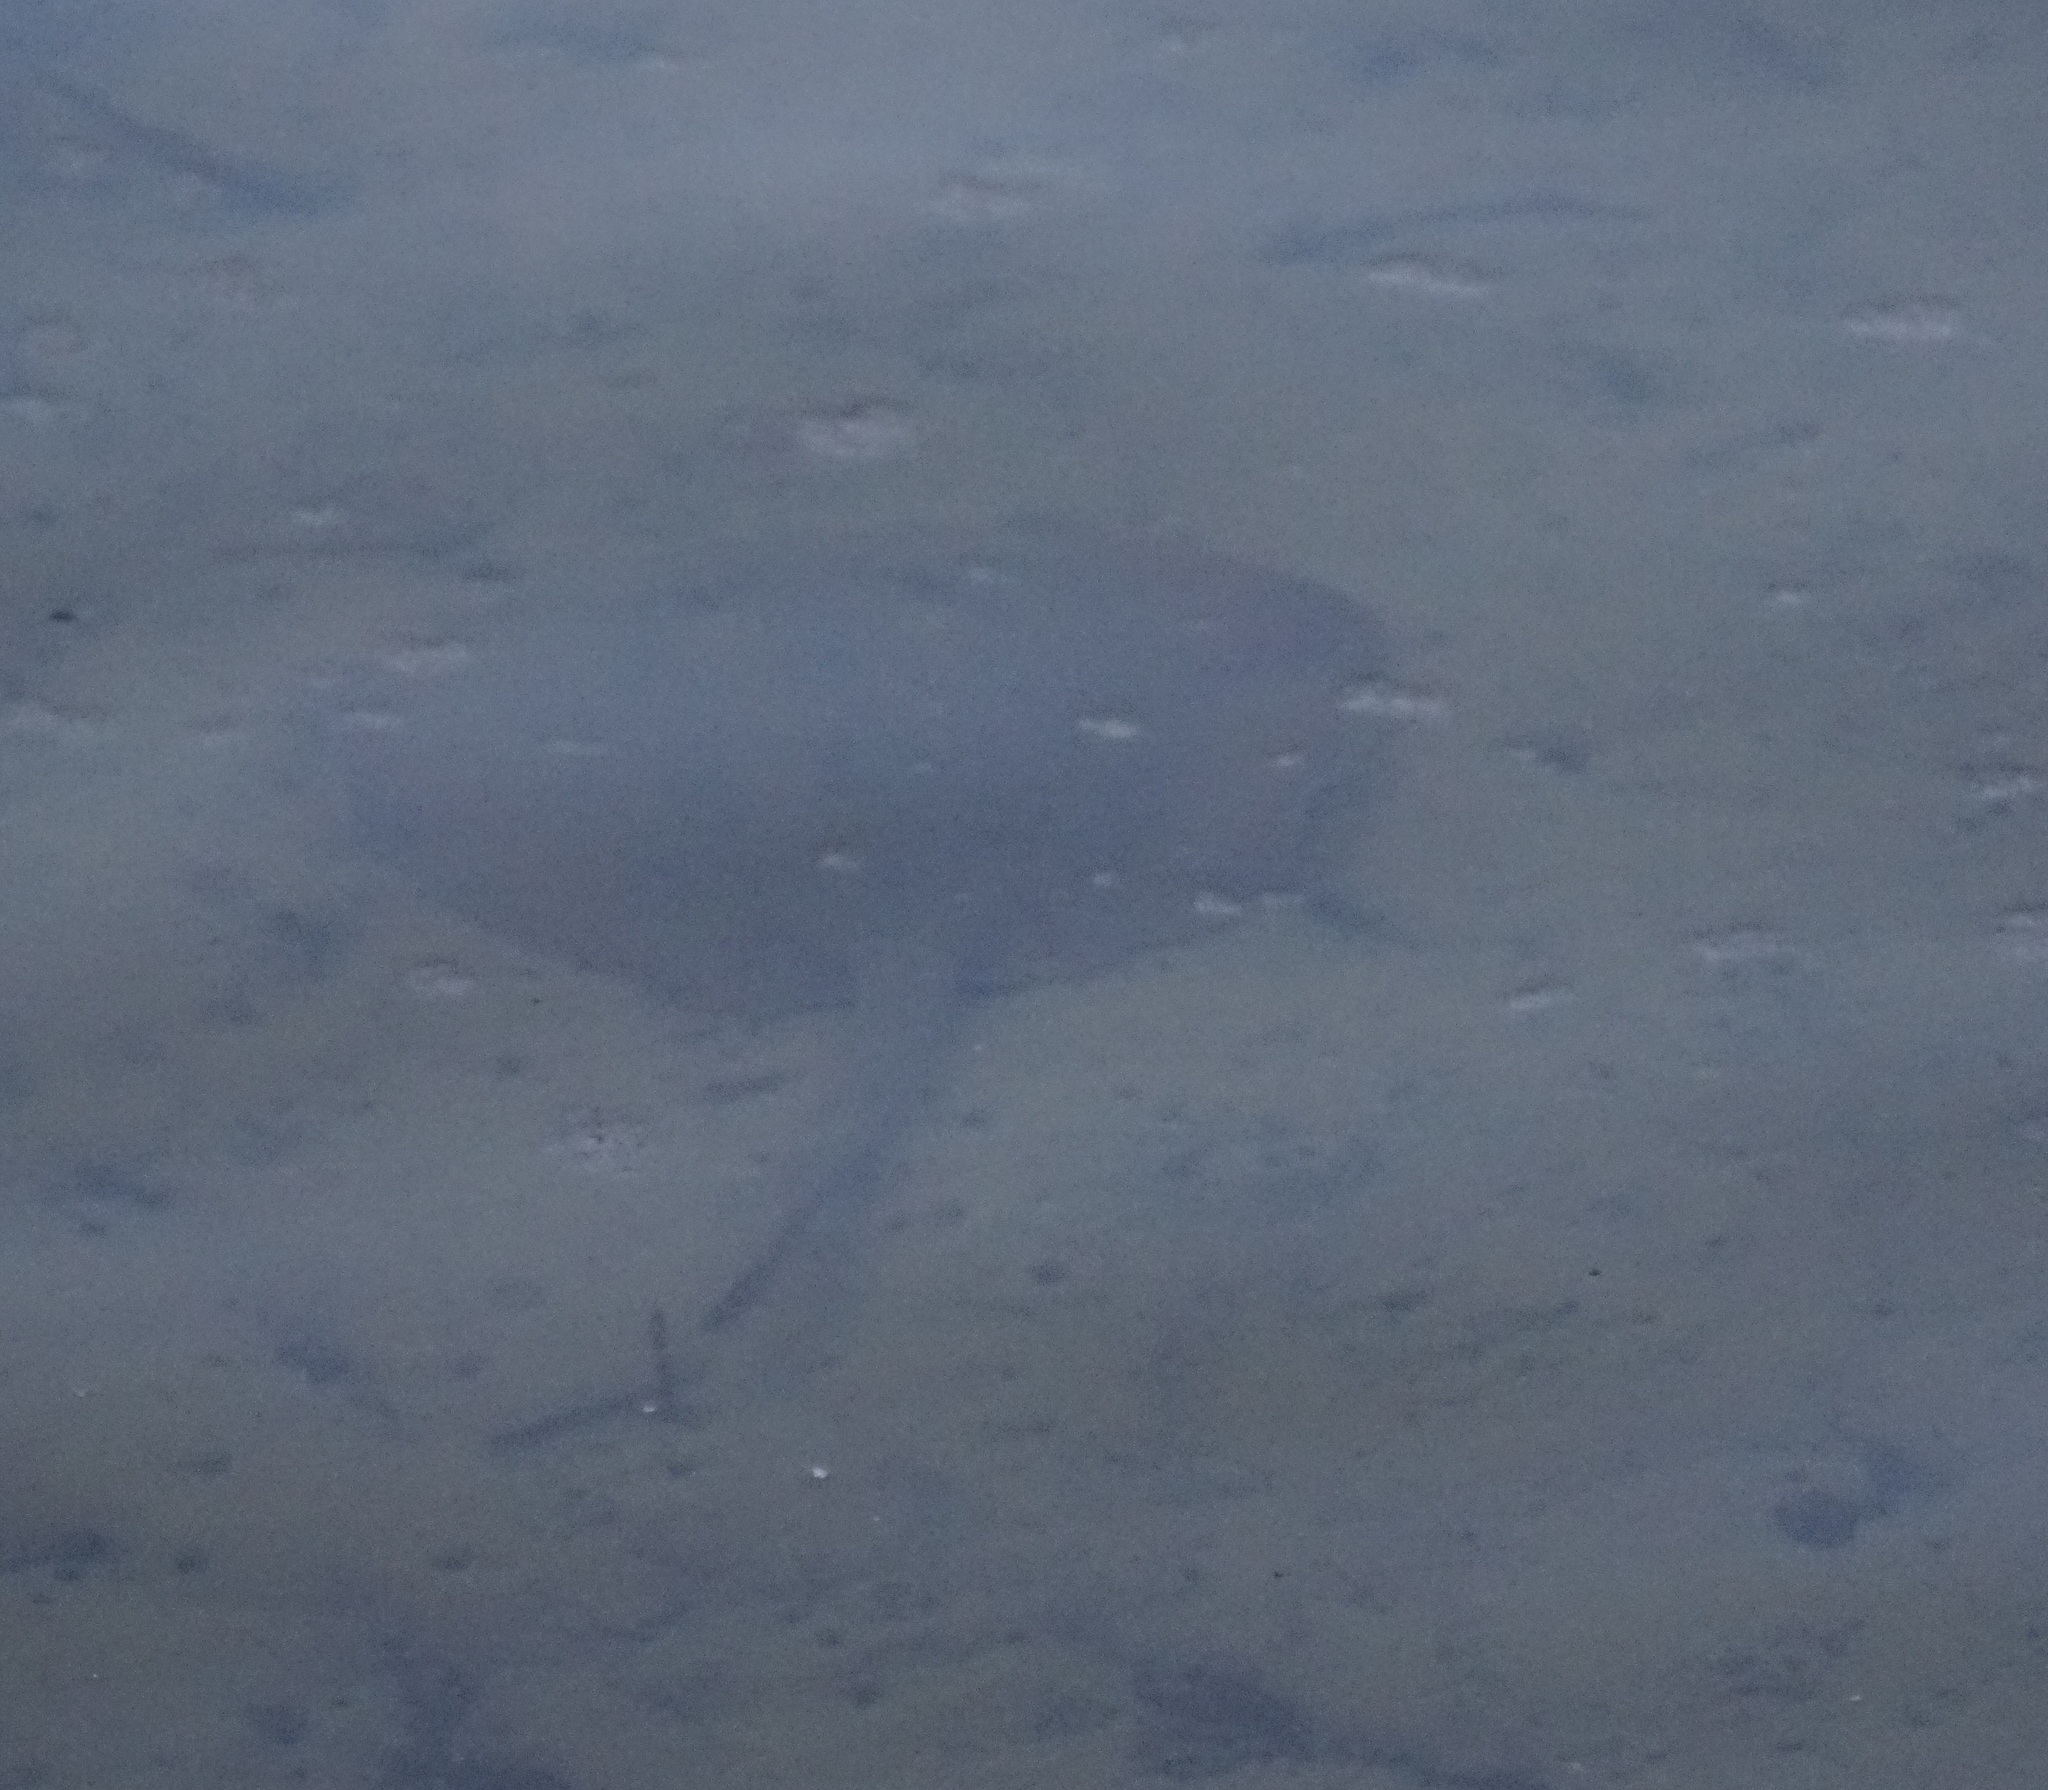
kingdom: Animalia
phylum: Chordata
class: Elasmobranchii
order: Myliobatiformes
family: Urolophidae
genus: Trygonoptera
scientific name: Trygonoptera testacea
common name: Common stingaree
